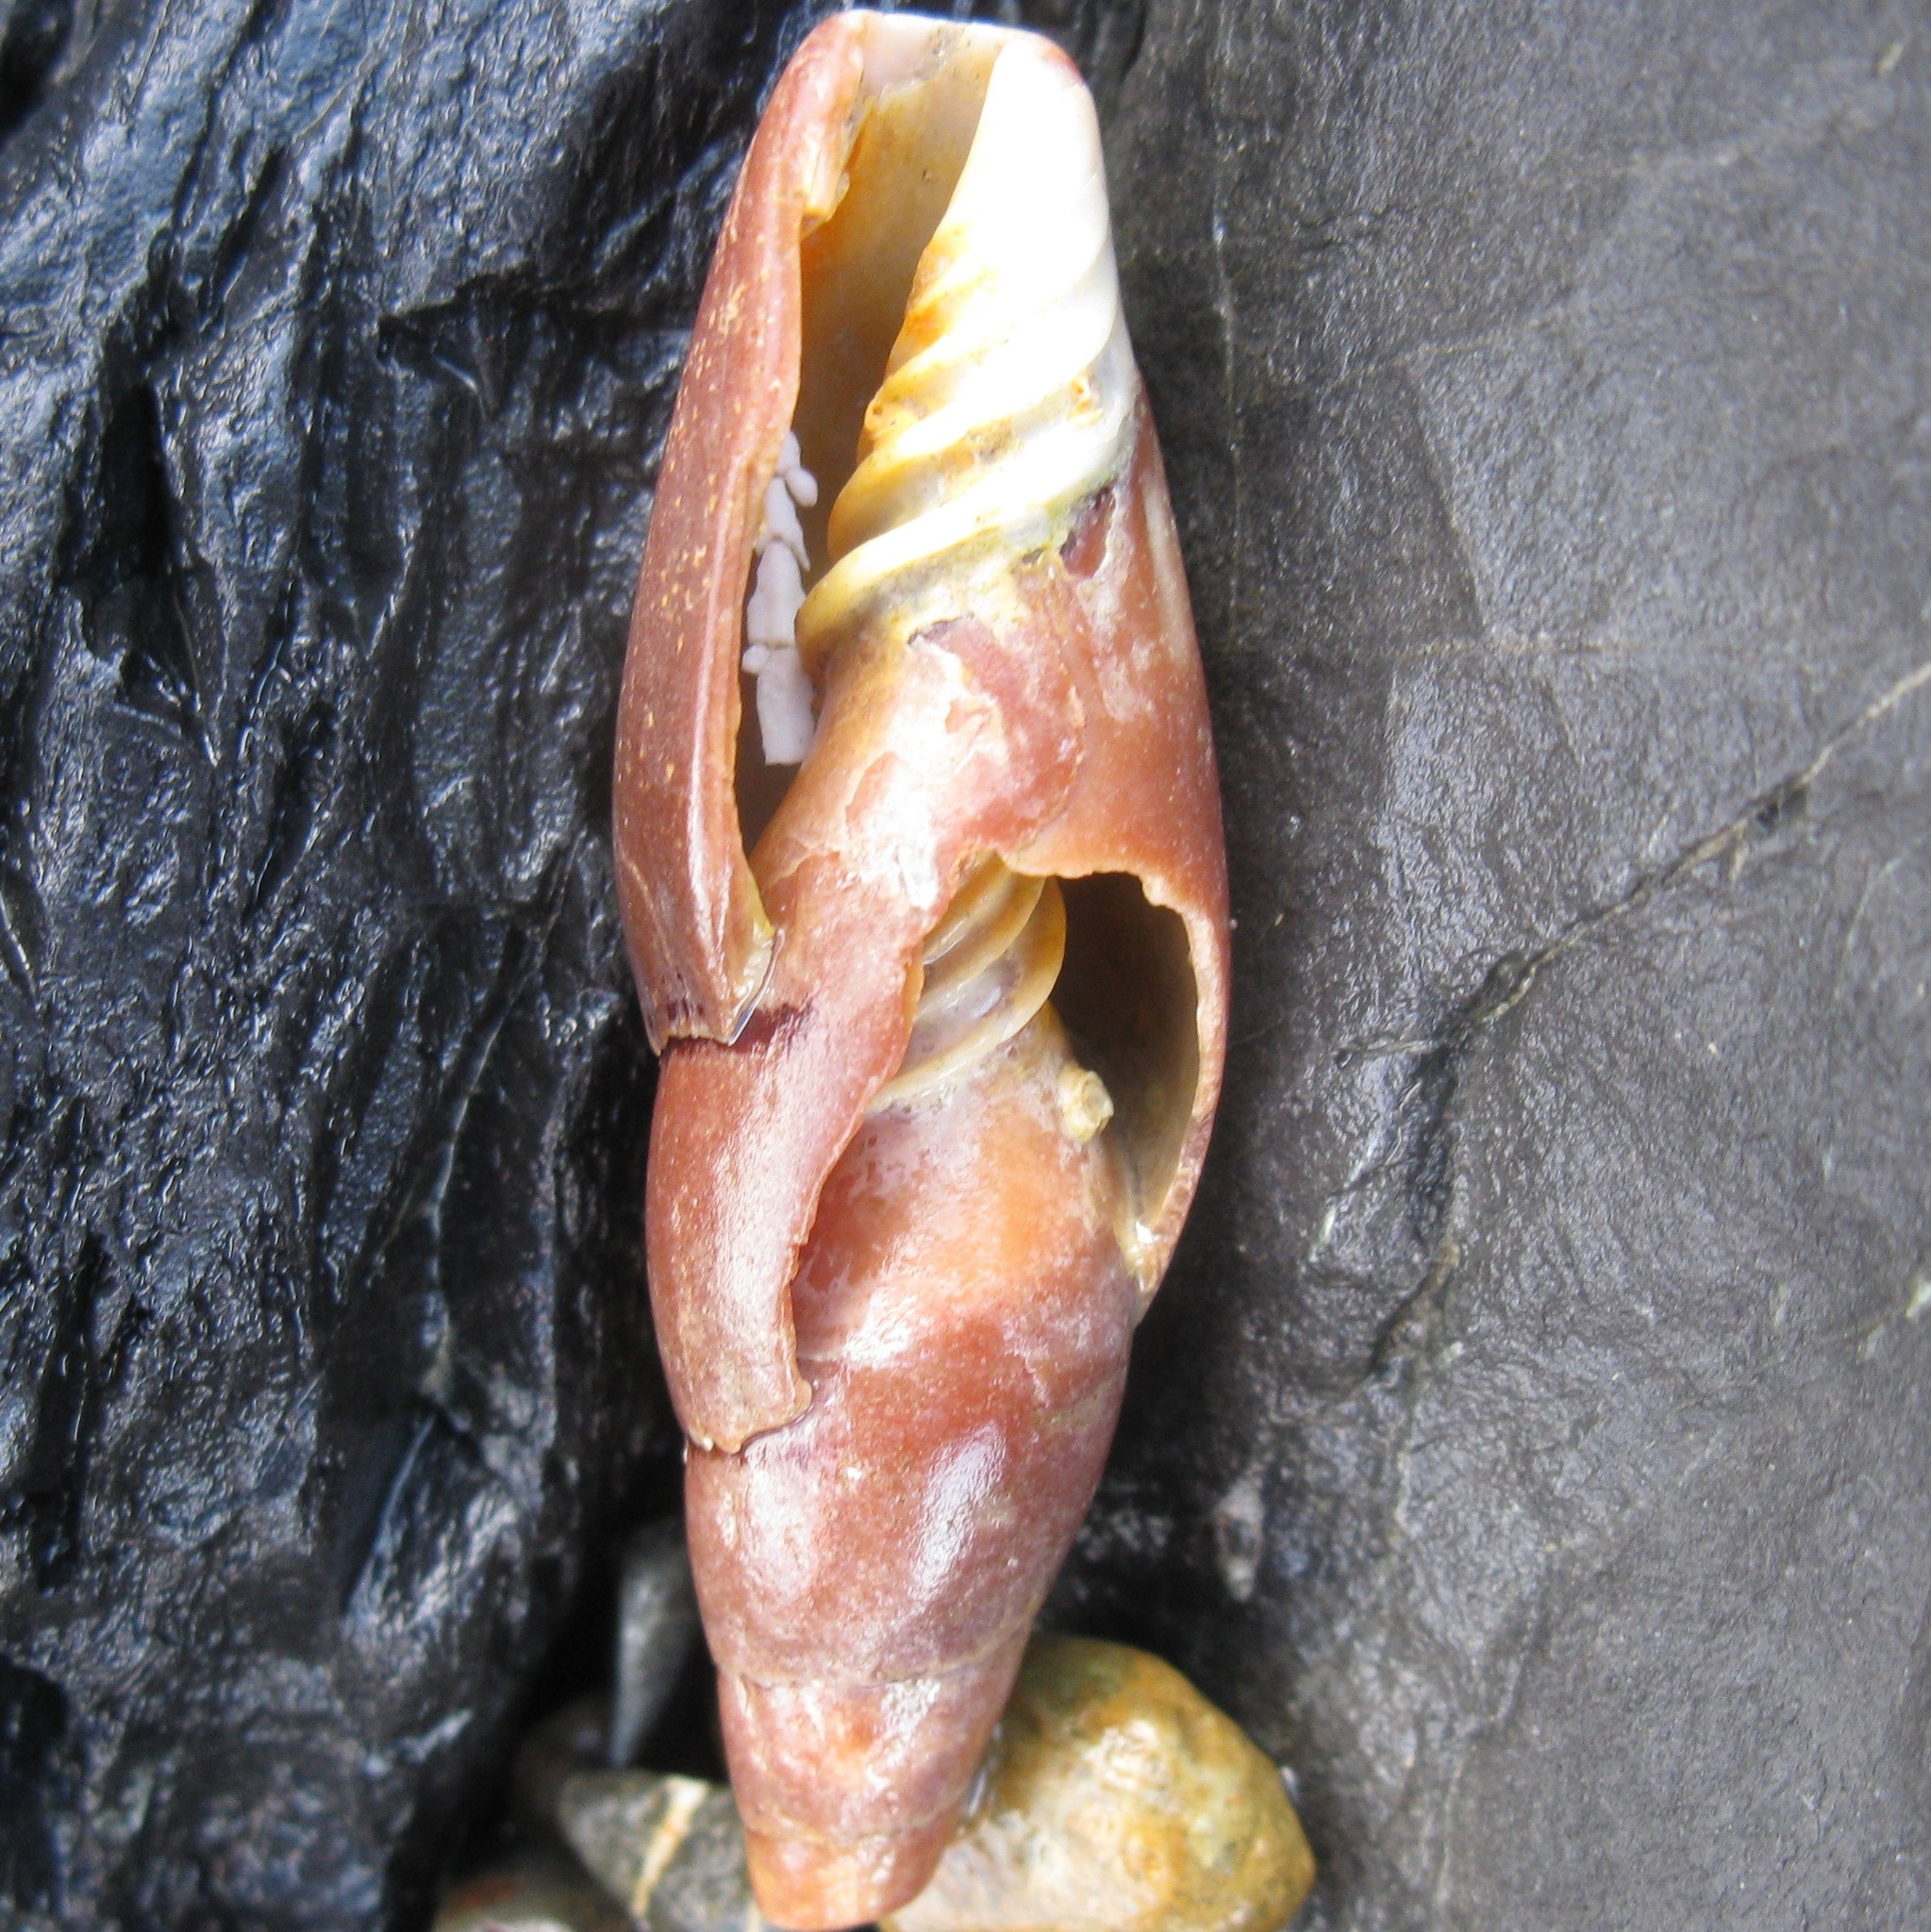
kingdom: Animalia
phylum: Mollusca
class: Gastropoda
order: Neogastropoda
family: Mitridae
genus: Isara
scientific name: Isara carbonaria
